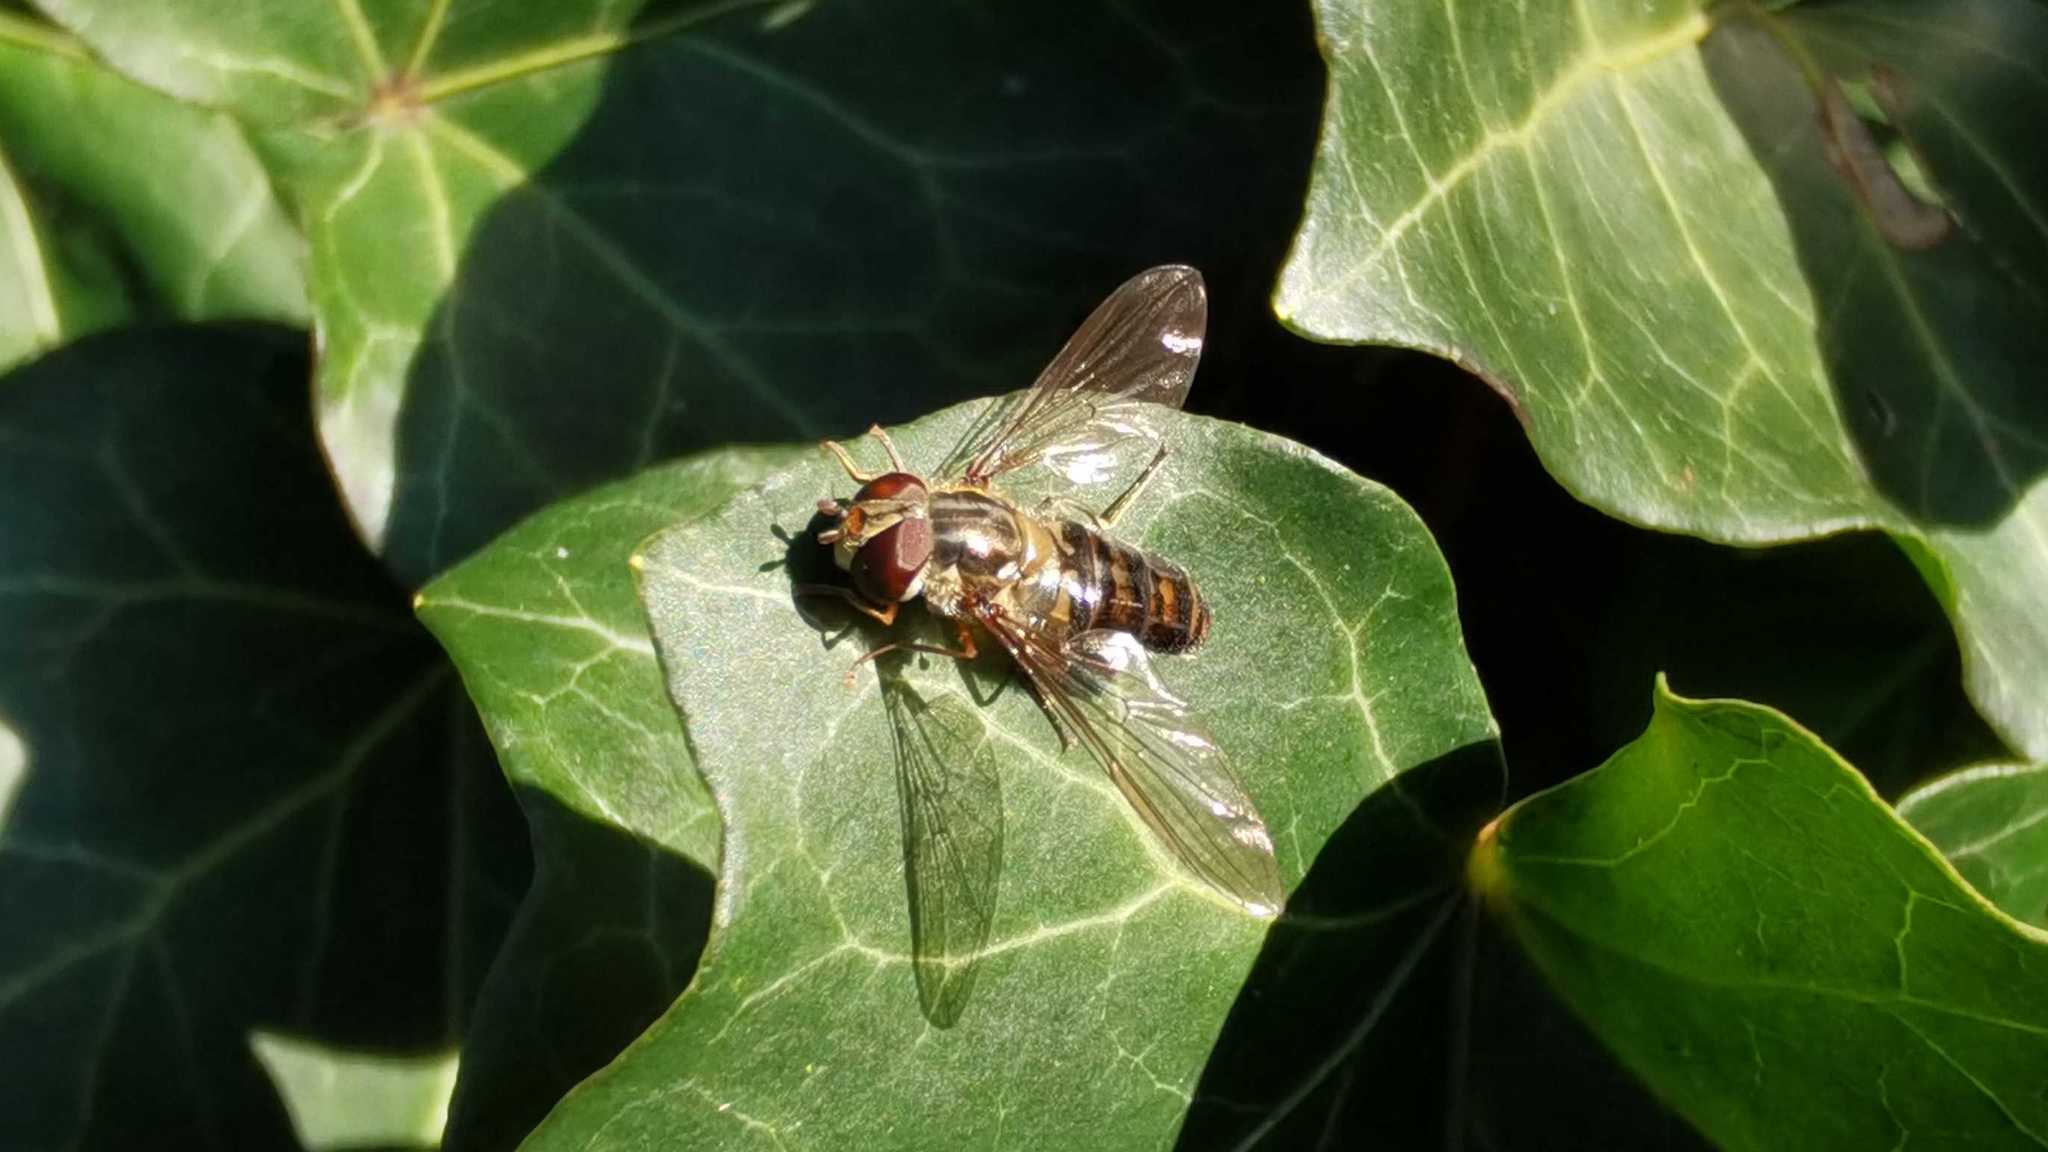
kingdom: Animalia
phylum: Arthropoda
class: Insecta
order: Diptera
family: Syrphidae
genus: Episyrphus
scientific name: Episyrphus balteatus
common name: Marmalade hoverfly
